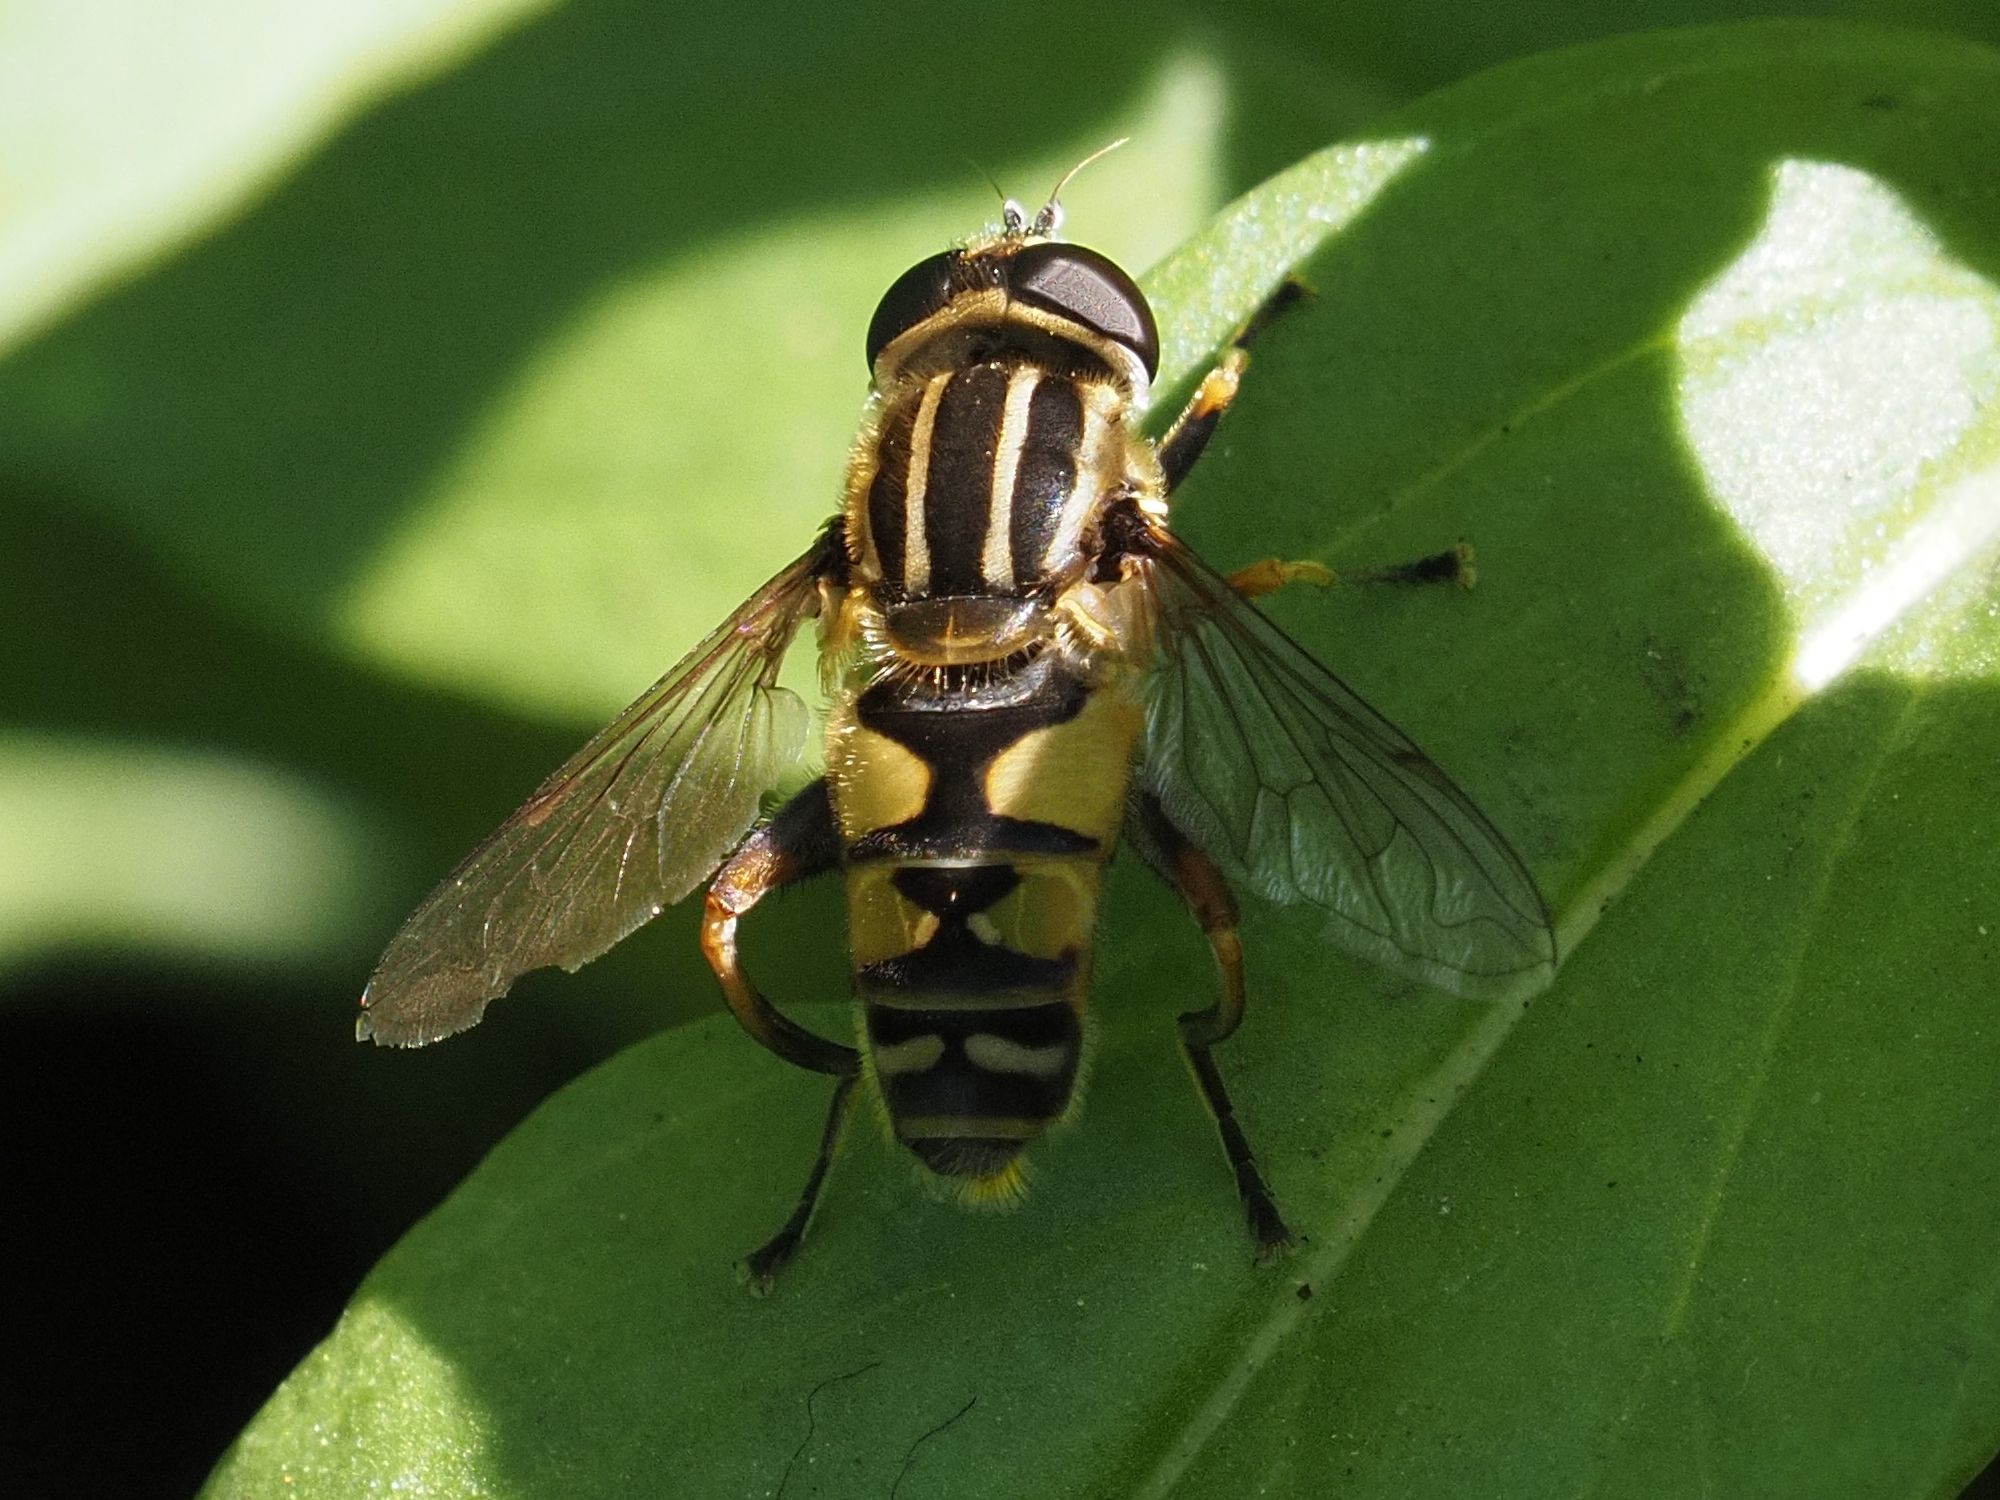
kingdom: Animalia
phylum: Arthropoda
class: Insecta
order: Diptera
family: Syrphidae
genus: Helophilus
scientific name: Helophilus pendulus
